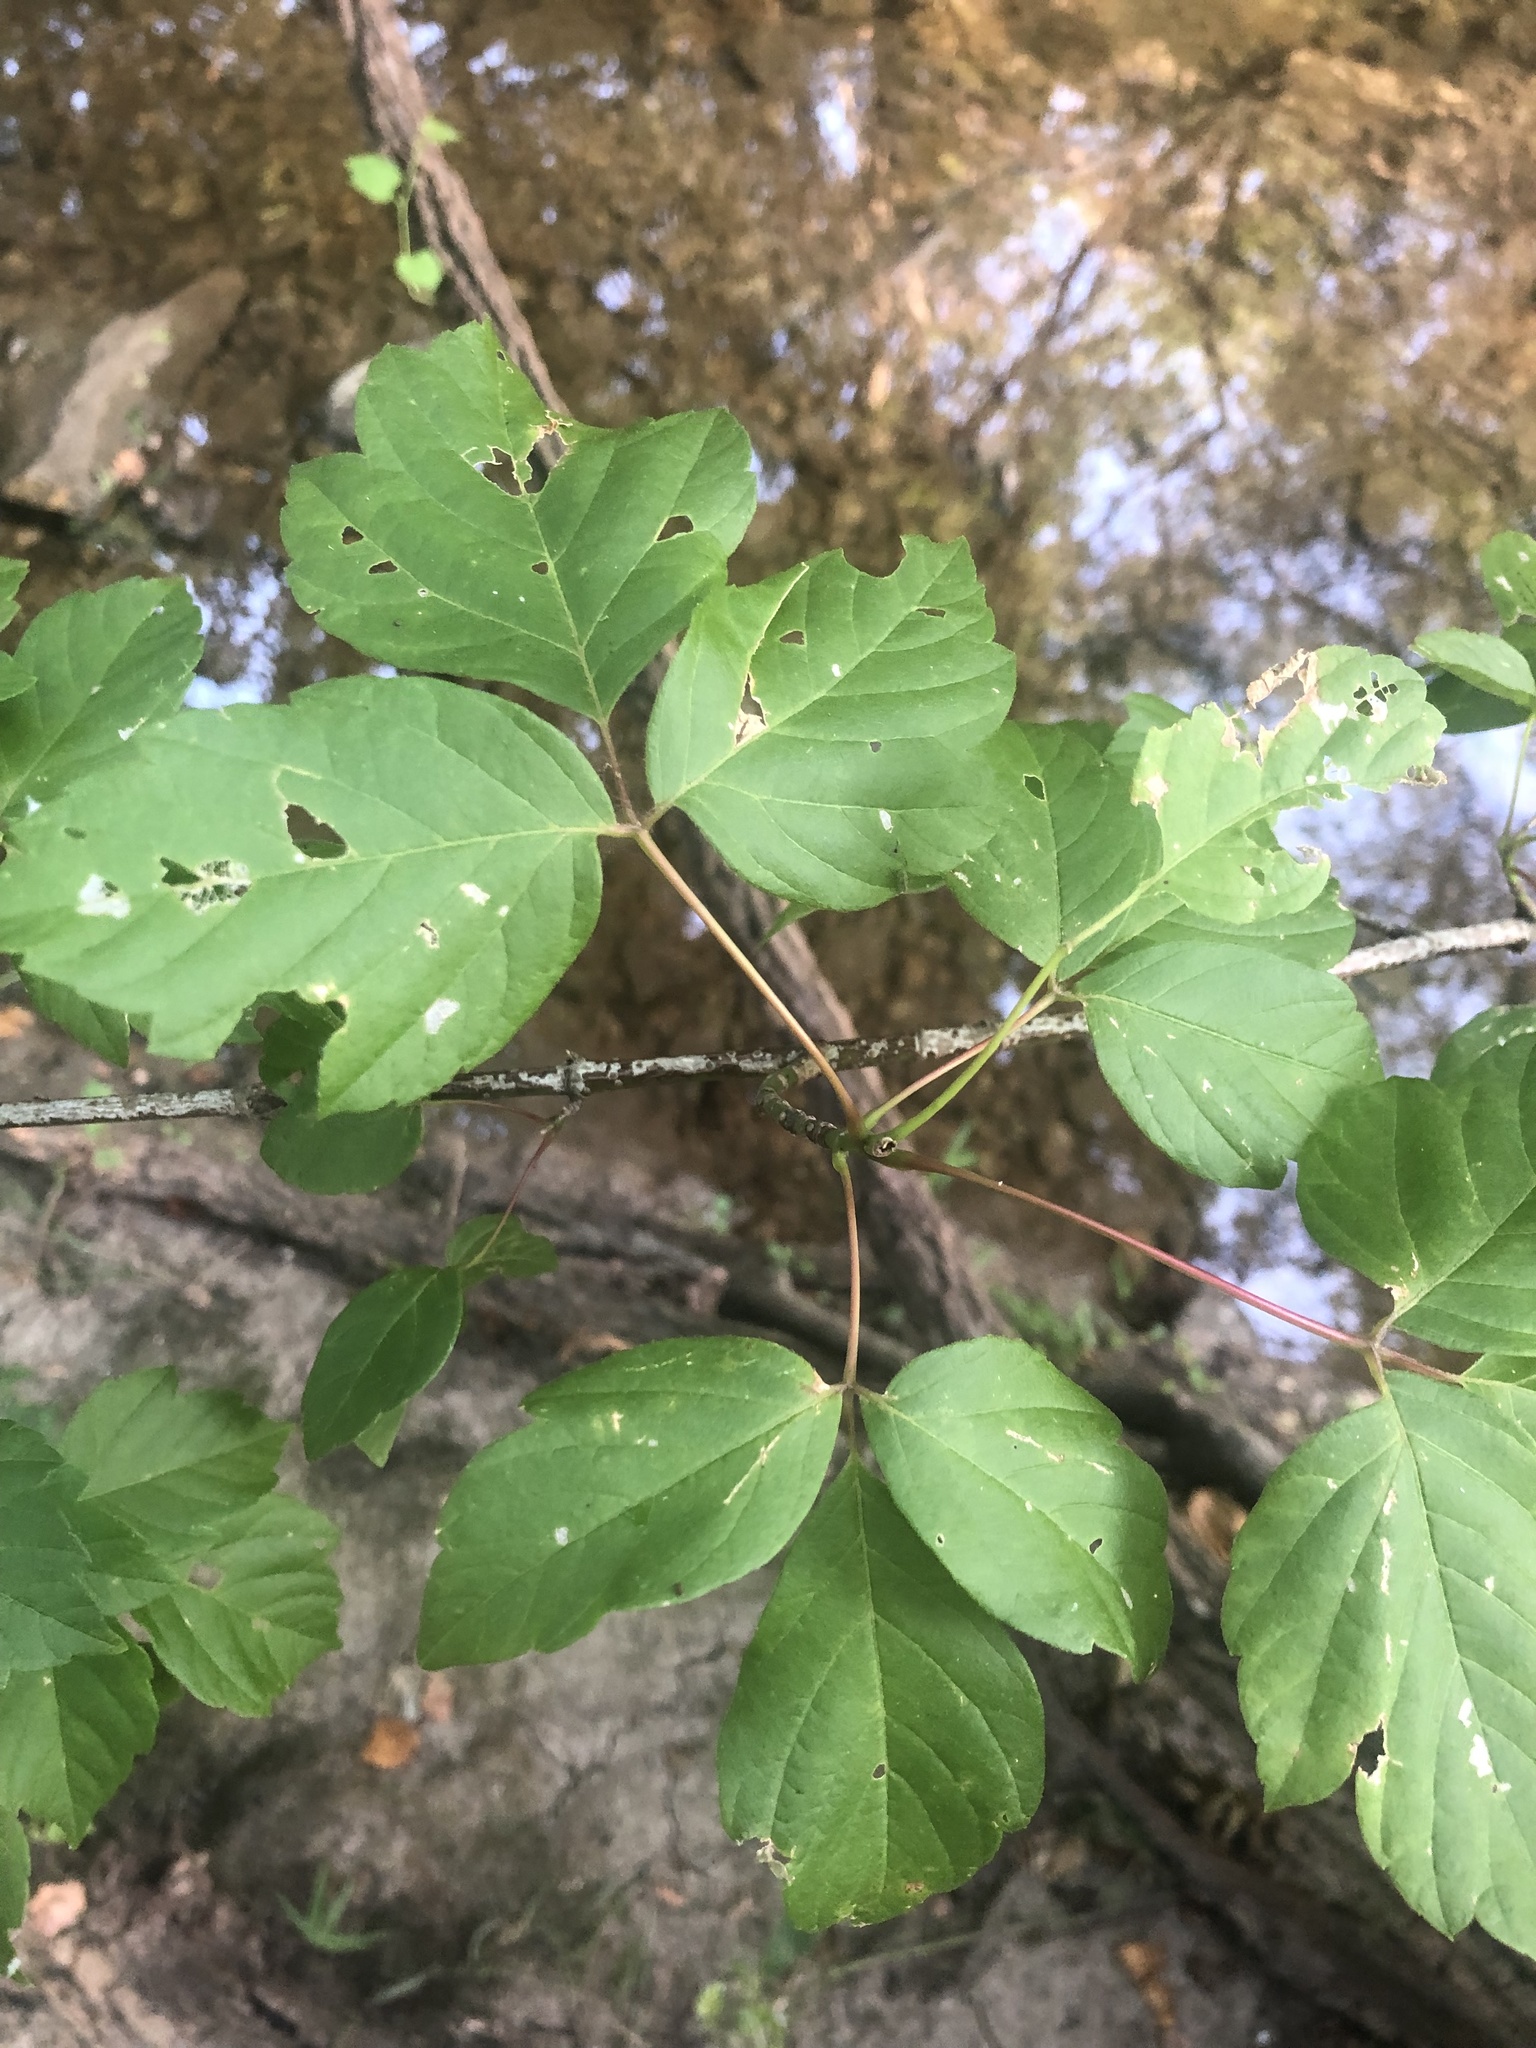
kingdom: Plantae
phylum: Tracheophyta
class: Magnoliopsida
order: Sapindales
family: Sapindaceae
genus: Acer
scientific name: Acer negundo
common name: Ashleaf maple
